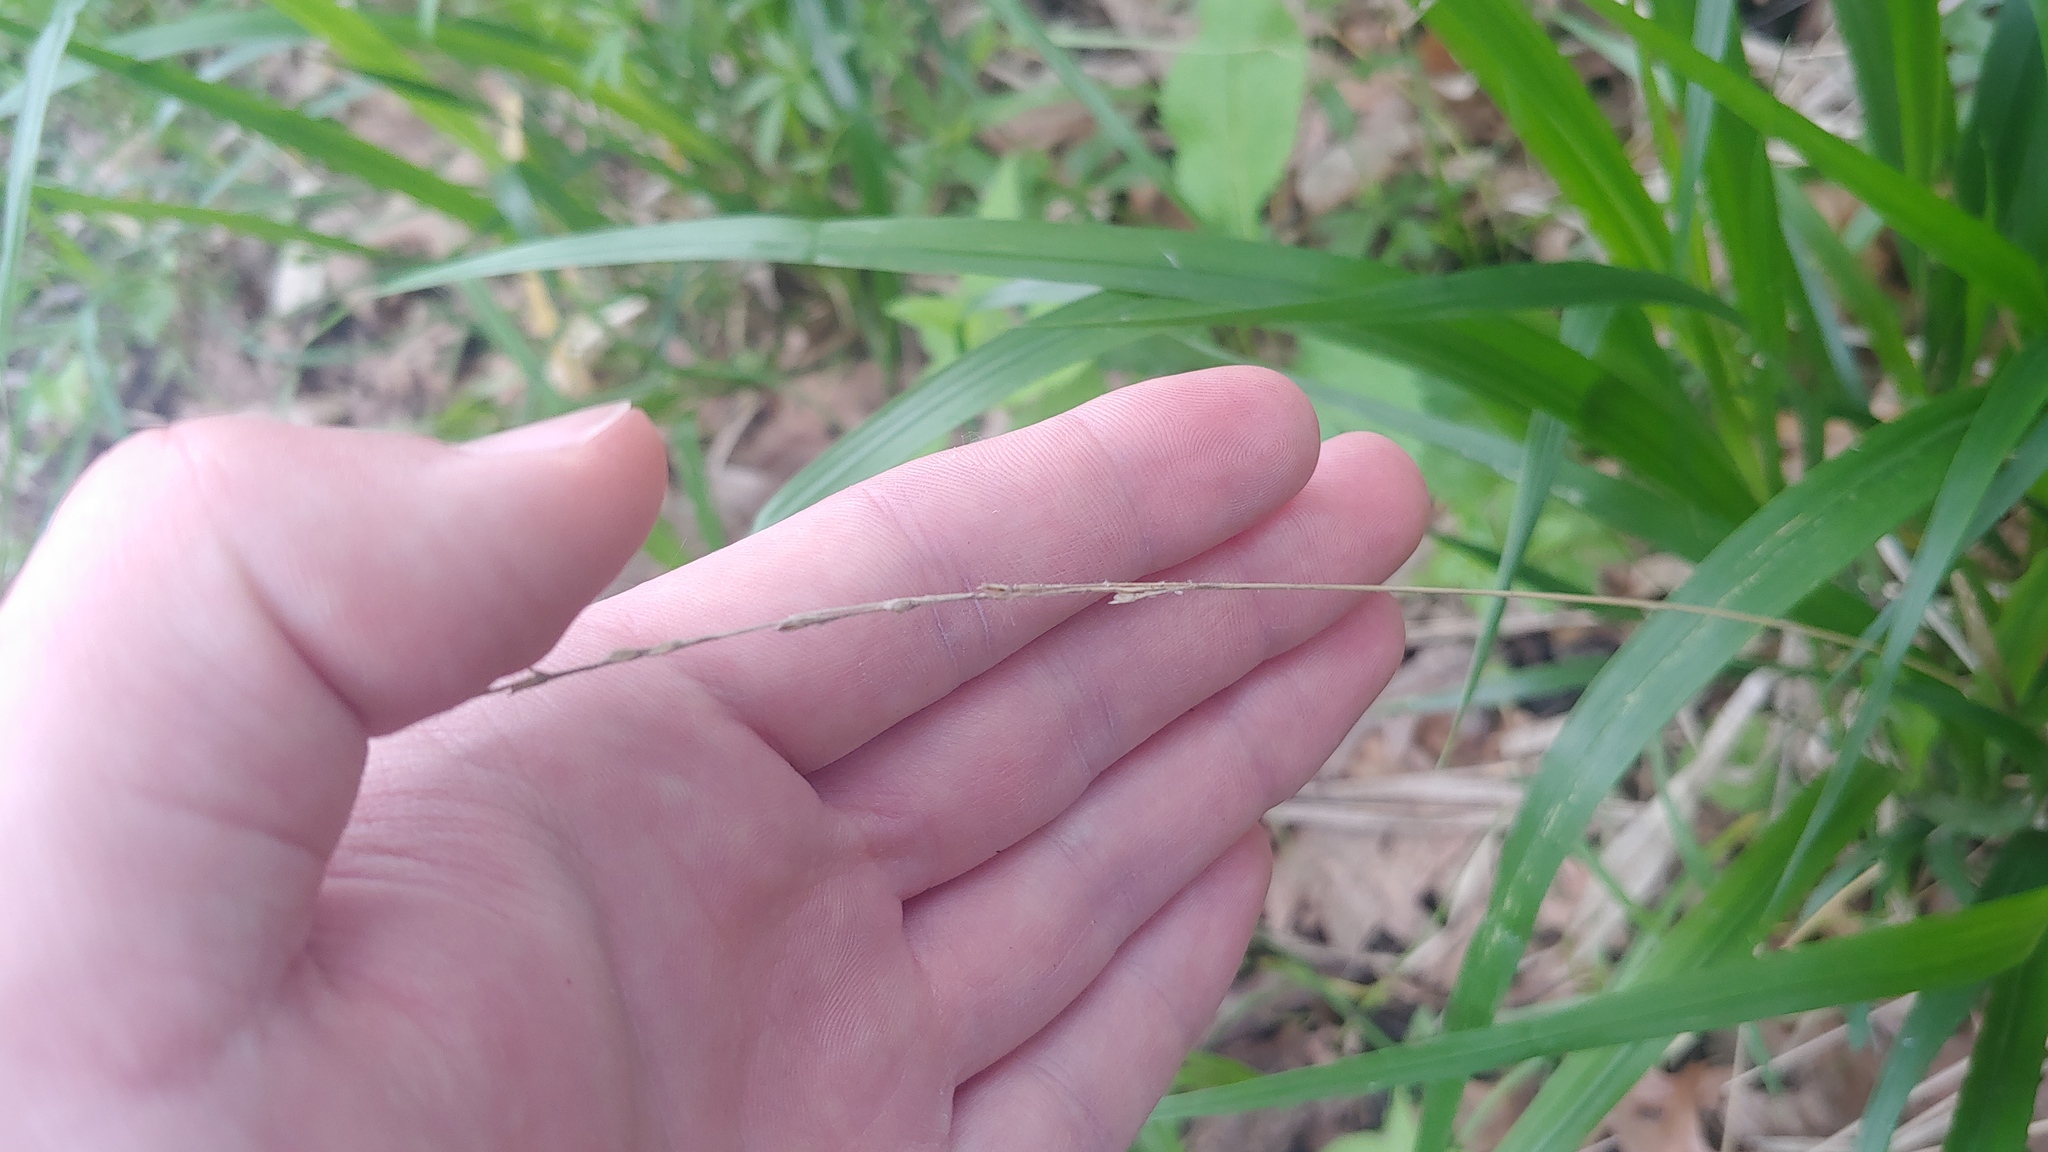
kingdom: Plantae
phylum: Tracheophyta
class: Liliopsida
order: Poales
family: Poaceae
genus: Diarrhena
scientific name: Diarrhena obovata
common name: Beakgrass
